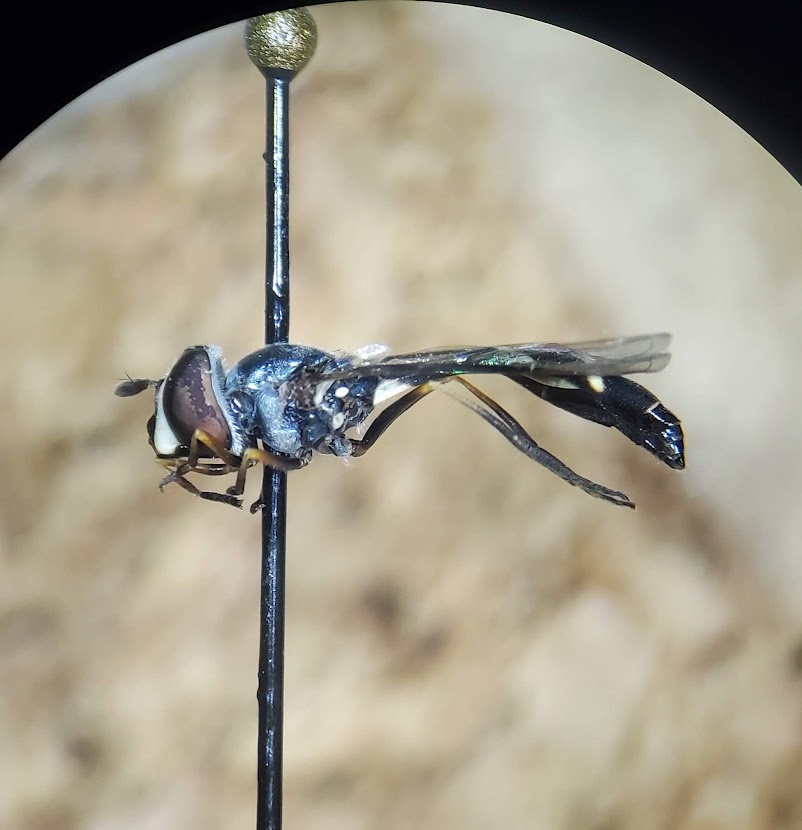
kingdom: Animalia
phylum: Arthropoda
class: Insecta
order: Diptera
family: Syrphidae
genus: Dioprosopa
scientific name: Dioprosopa clavatus
